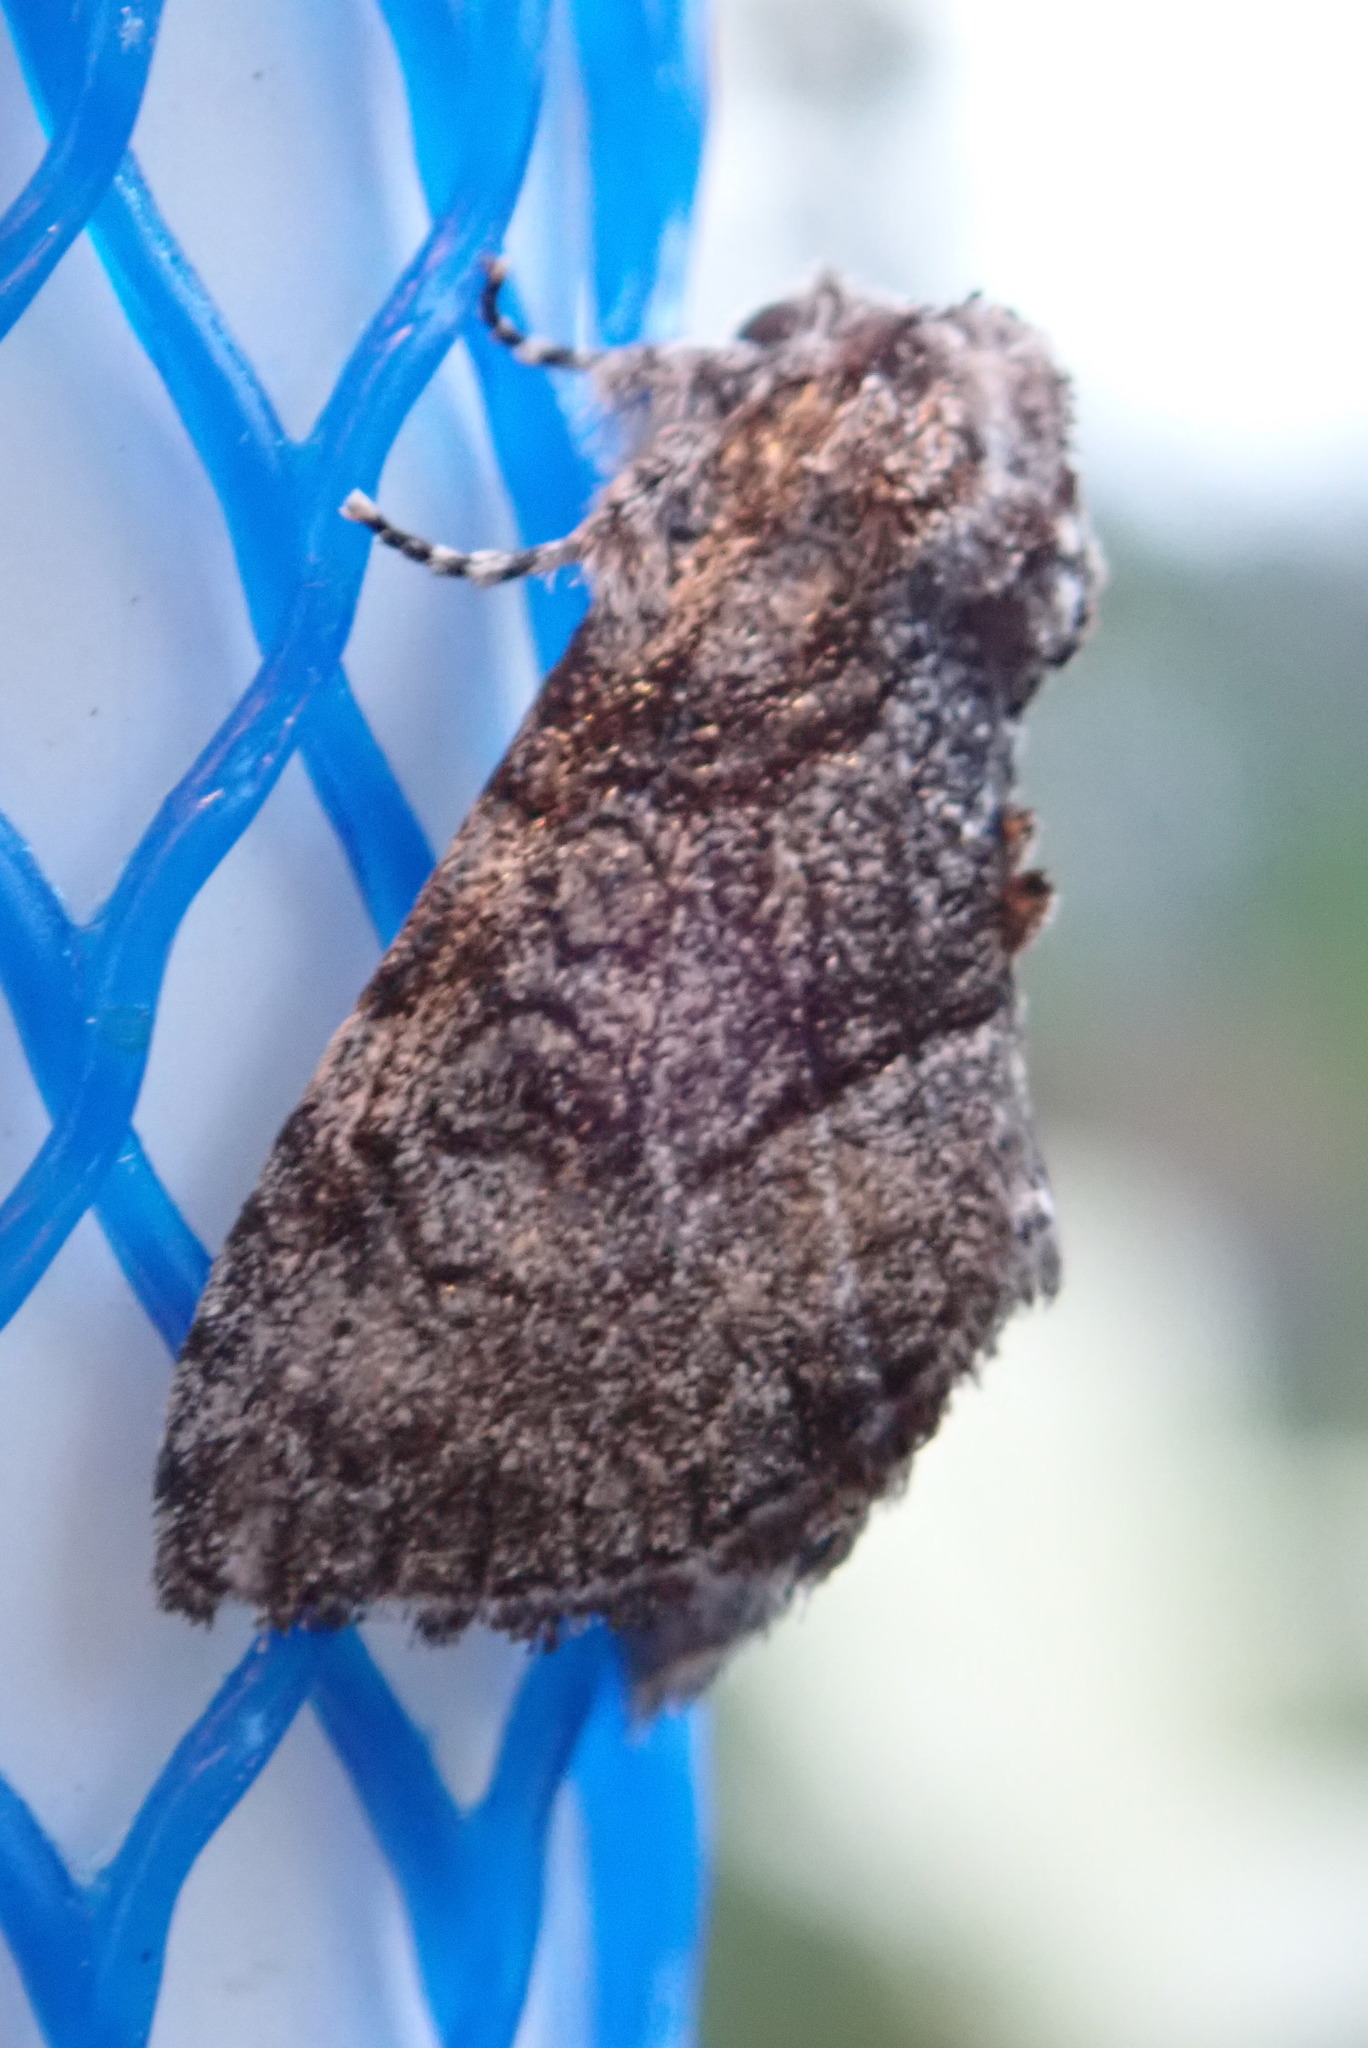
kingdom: Animalia
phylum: Arthropoda
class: Insecta
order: Lepidoptera
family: Noctuidae
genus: Raphia
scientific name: Raphia frater
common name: Brother
